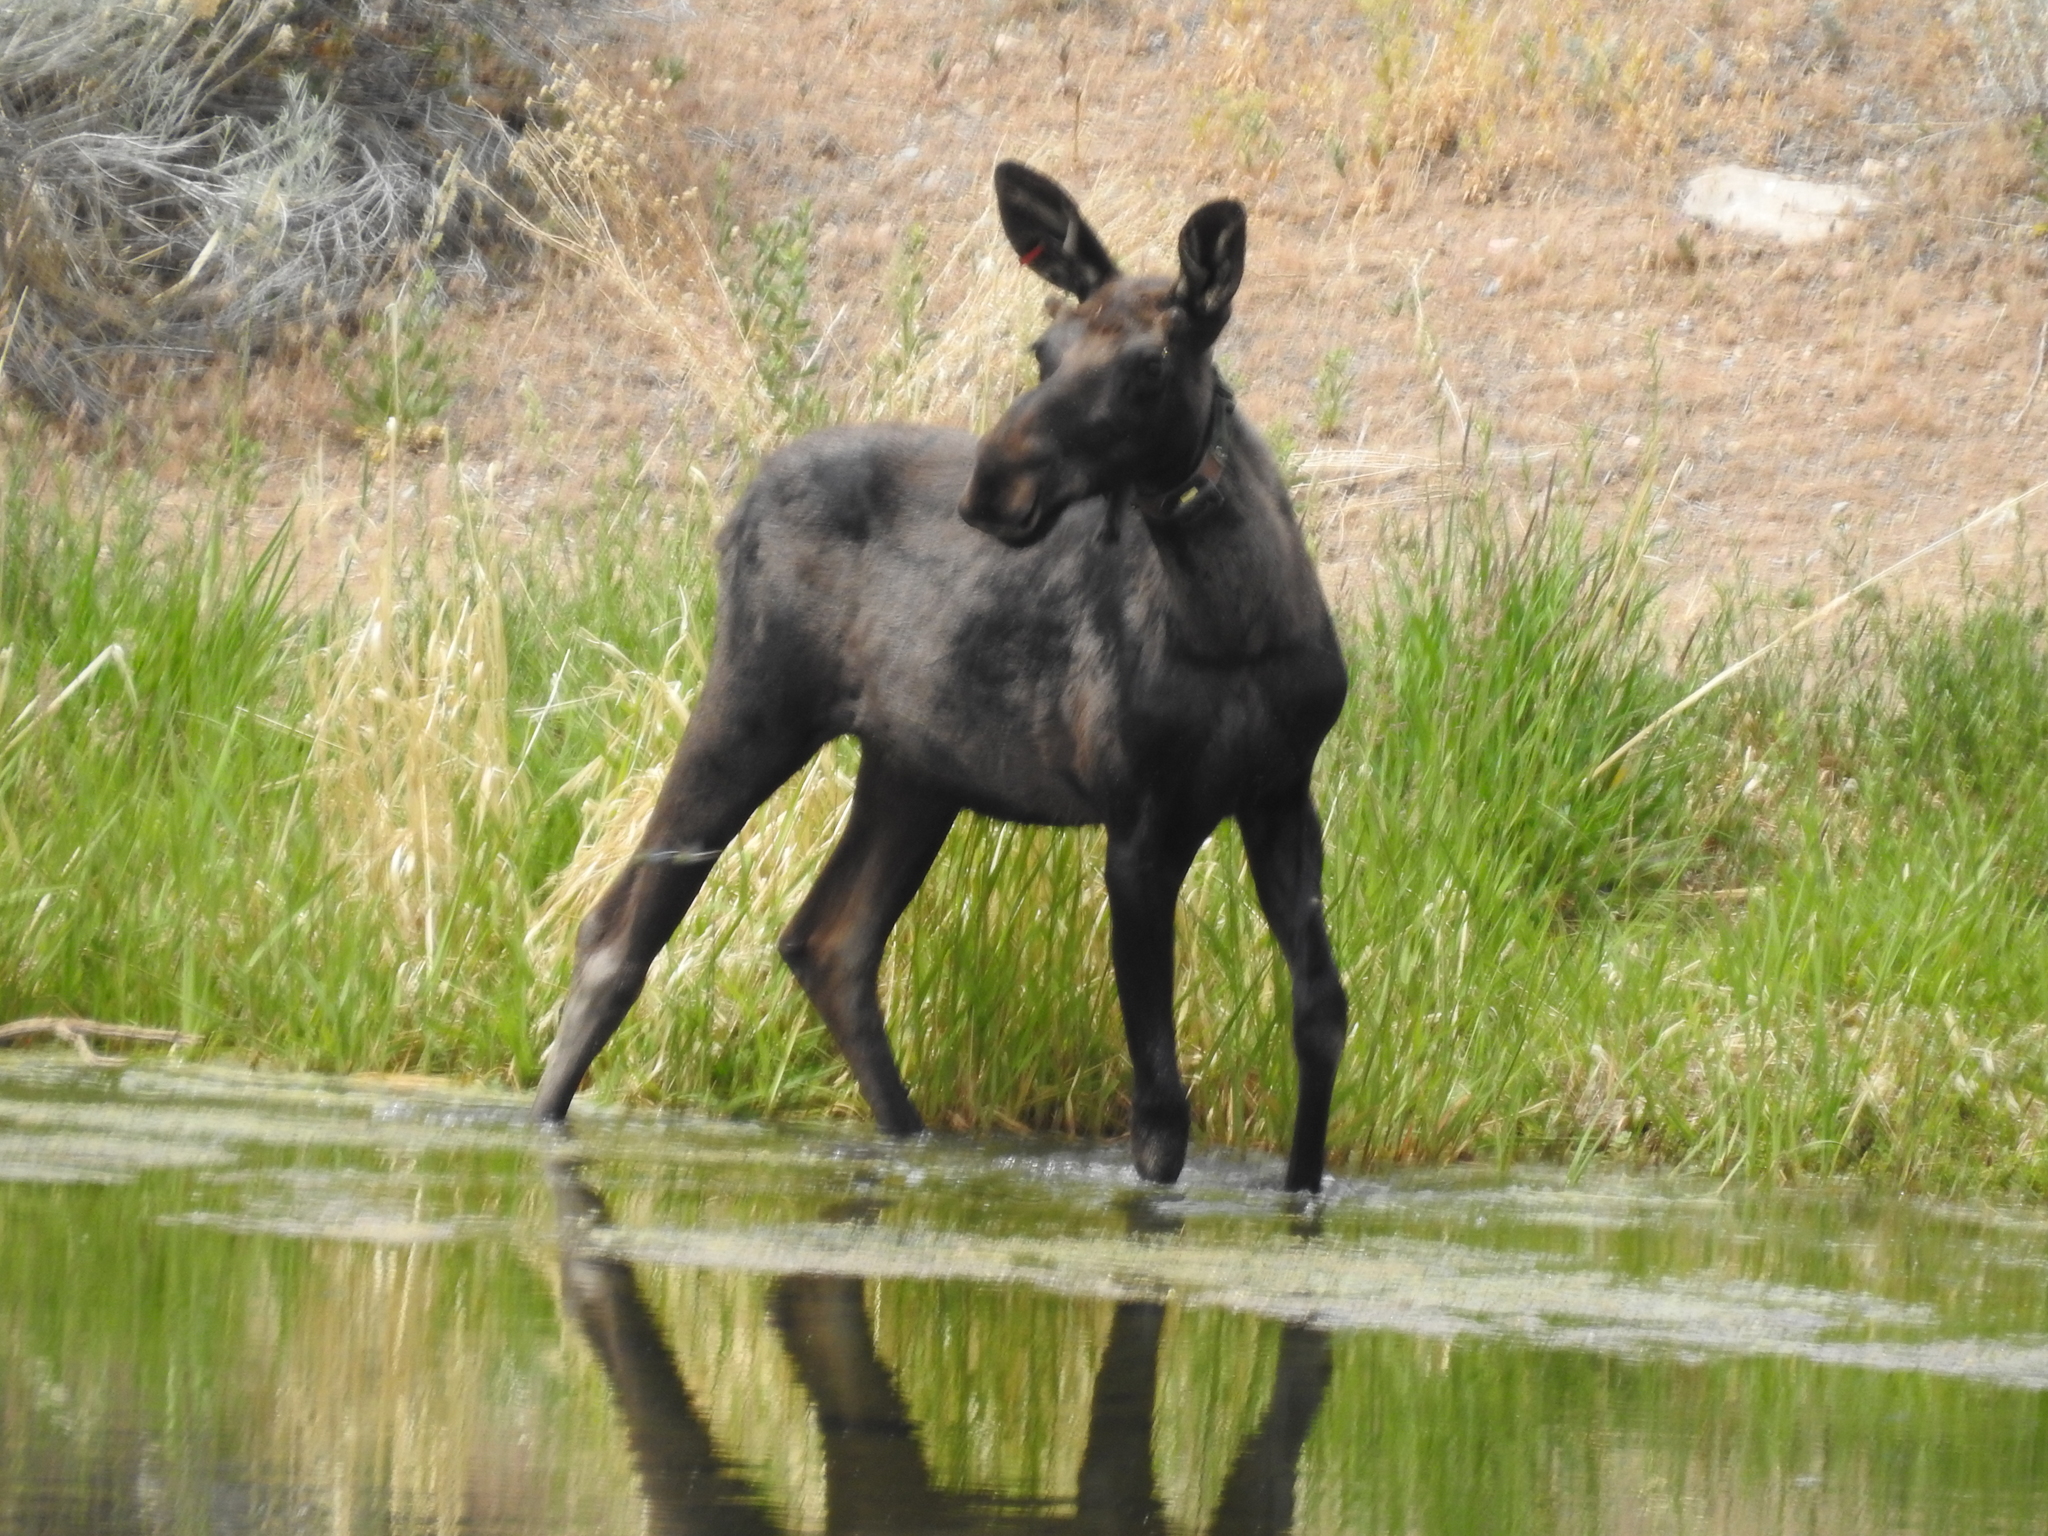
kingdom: Animalia
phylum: Chordata
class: Mammalia
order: Artiodactyla
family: Cervidae
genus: Alces
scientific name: Alces alces
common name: Moose
